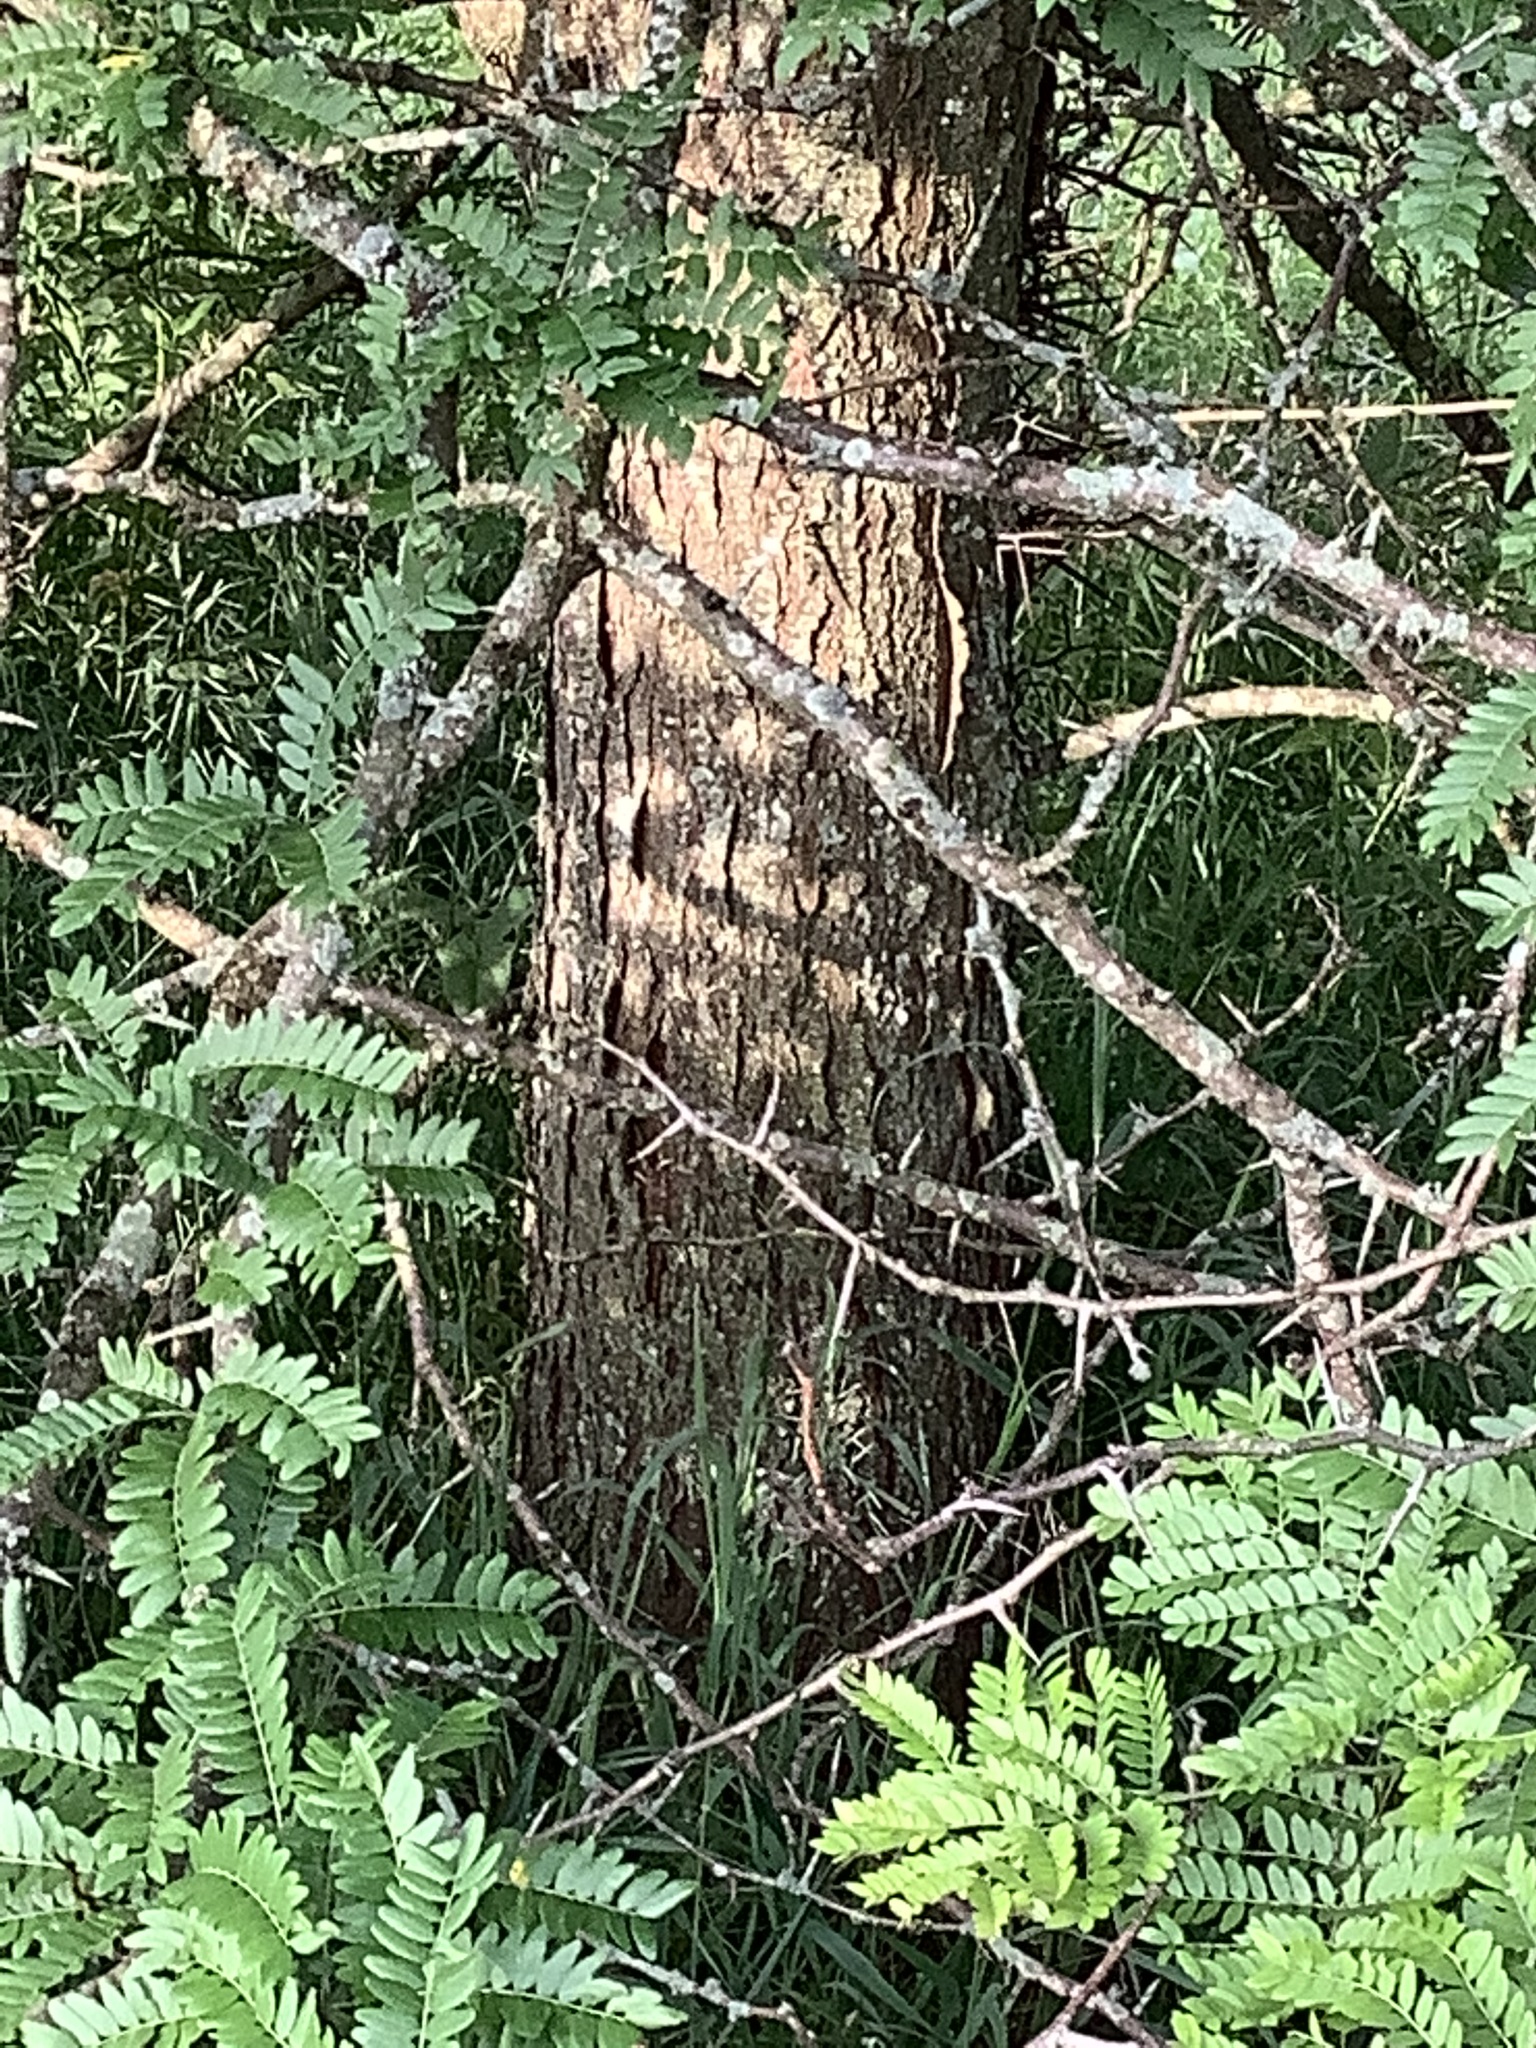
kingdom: Plantae
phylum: Tracheophyta
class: Magnoliopsida
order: Fabales
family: Fabaceae
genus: Gleditsia
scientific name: Gleditsia triacanthos
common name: Common honeylocust
